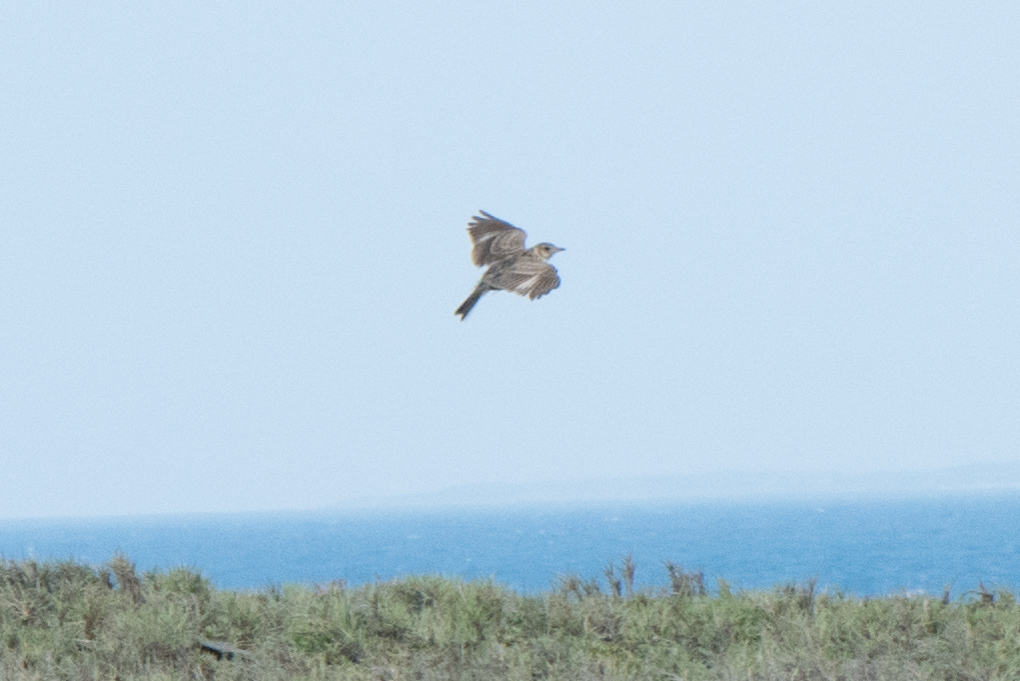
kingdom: Animalia
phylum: Chordata
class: Aves
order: Passeriformes
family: Alaudidae
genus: Alauda
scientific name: Alauda gulgula
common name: Oriental skylark
